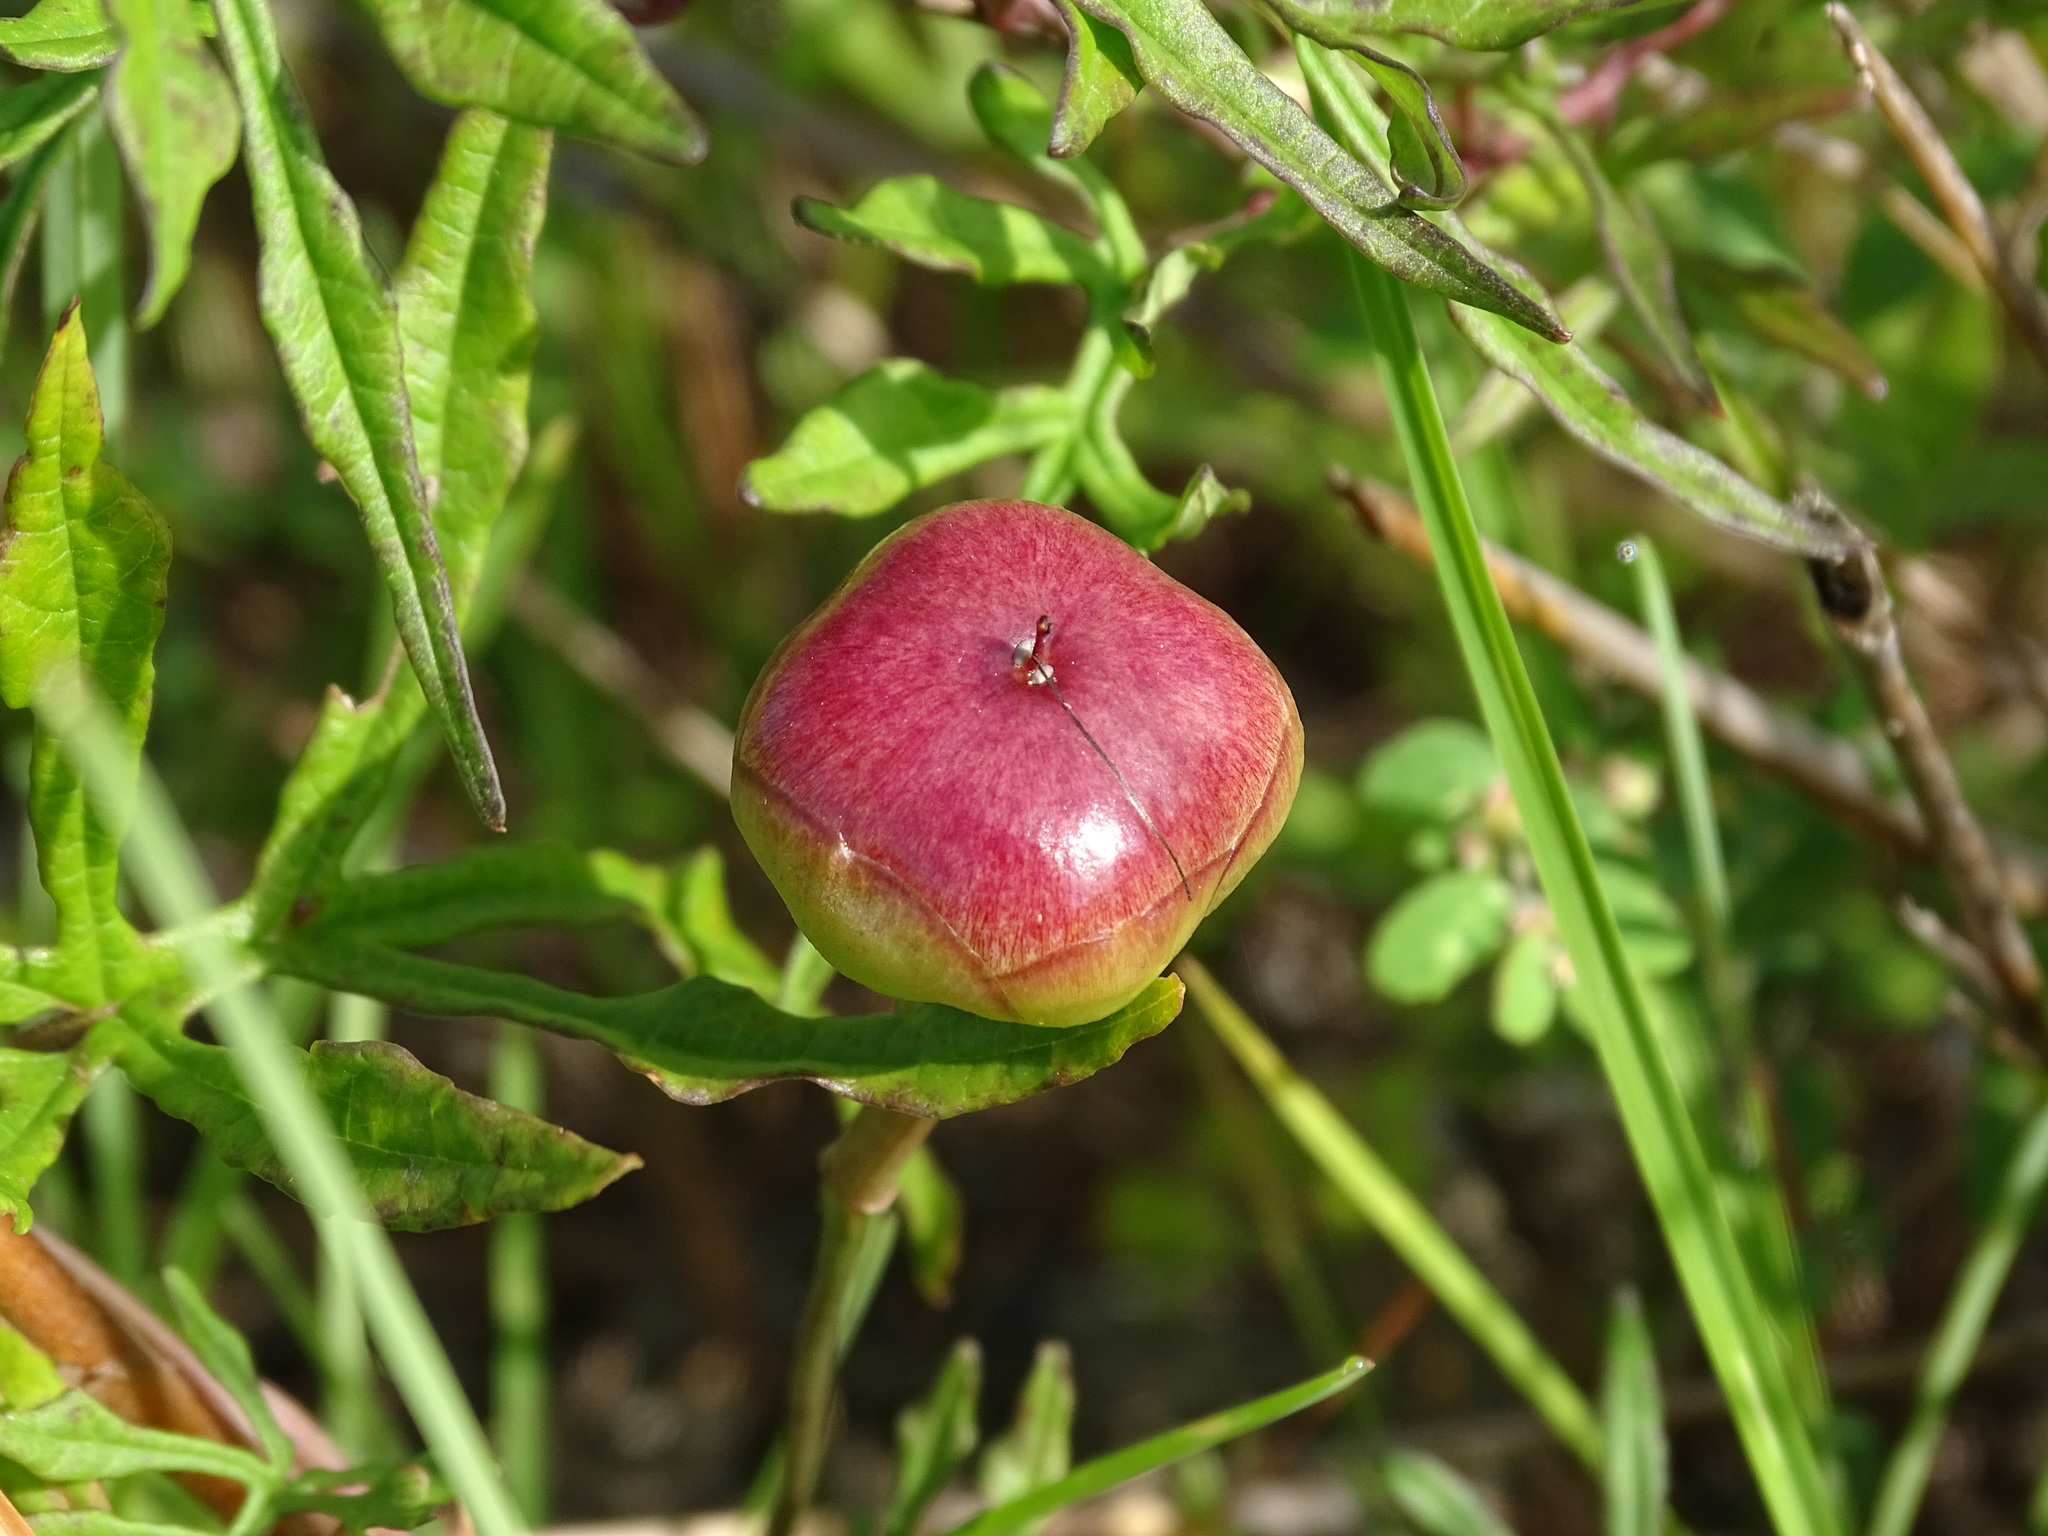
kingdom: Plantae
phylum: Tracheophyta
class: Magnoliopsida
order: Solanales
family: Convolvulaceae
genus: Operculina
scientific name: Operculina pinnatifida
